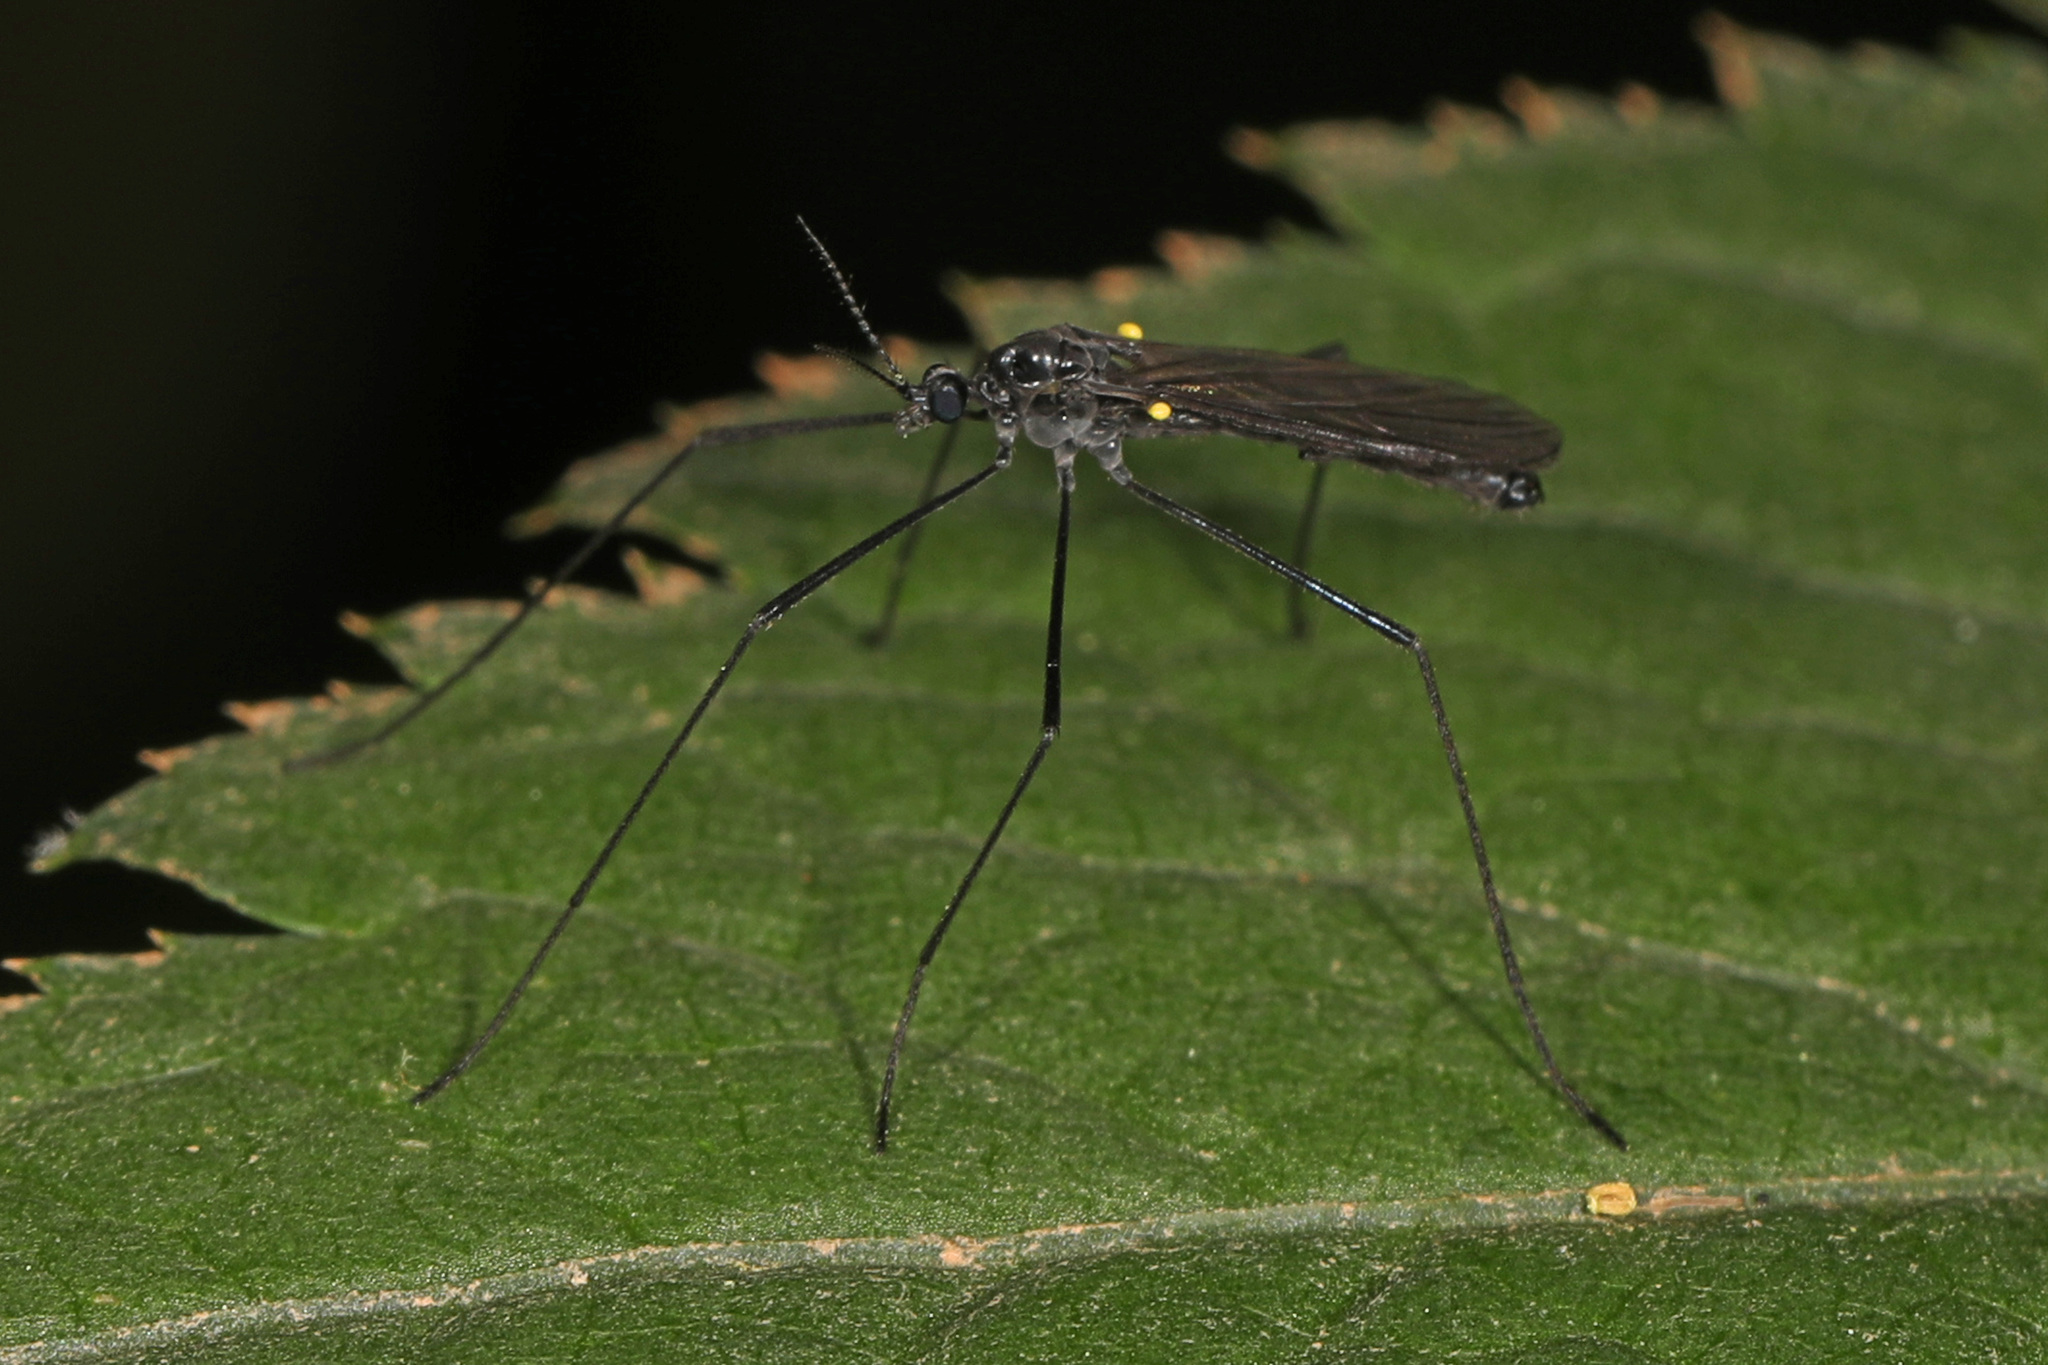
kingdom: Animalia
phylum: Arthropoda
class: Insecta
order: Diptera
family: Limoniidae
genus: Gnophomyia
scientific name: Gnophomyia tristissima
